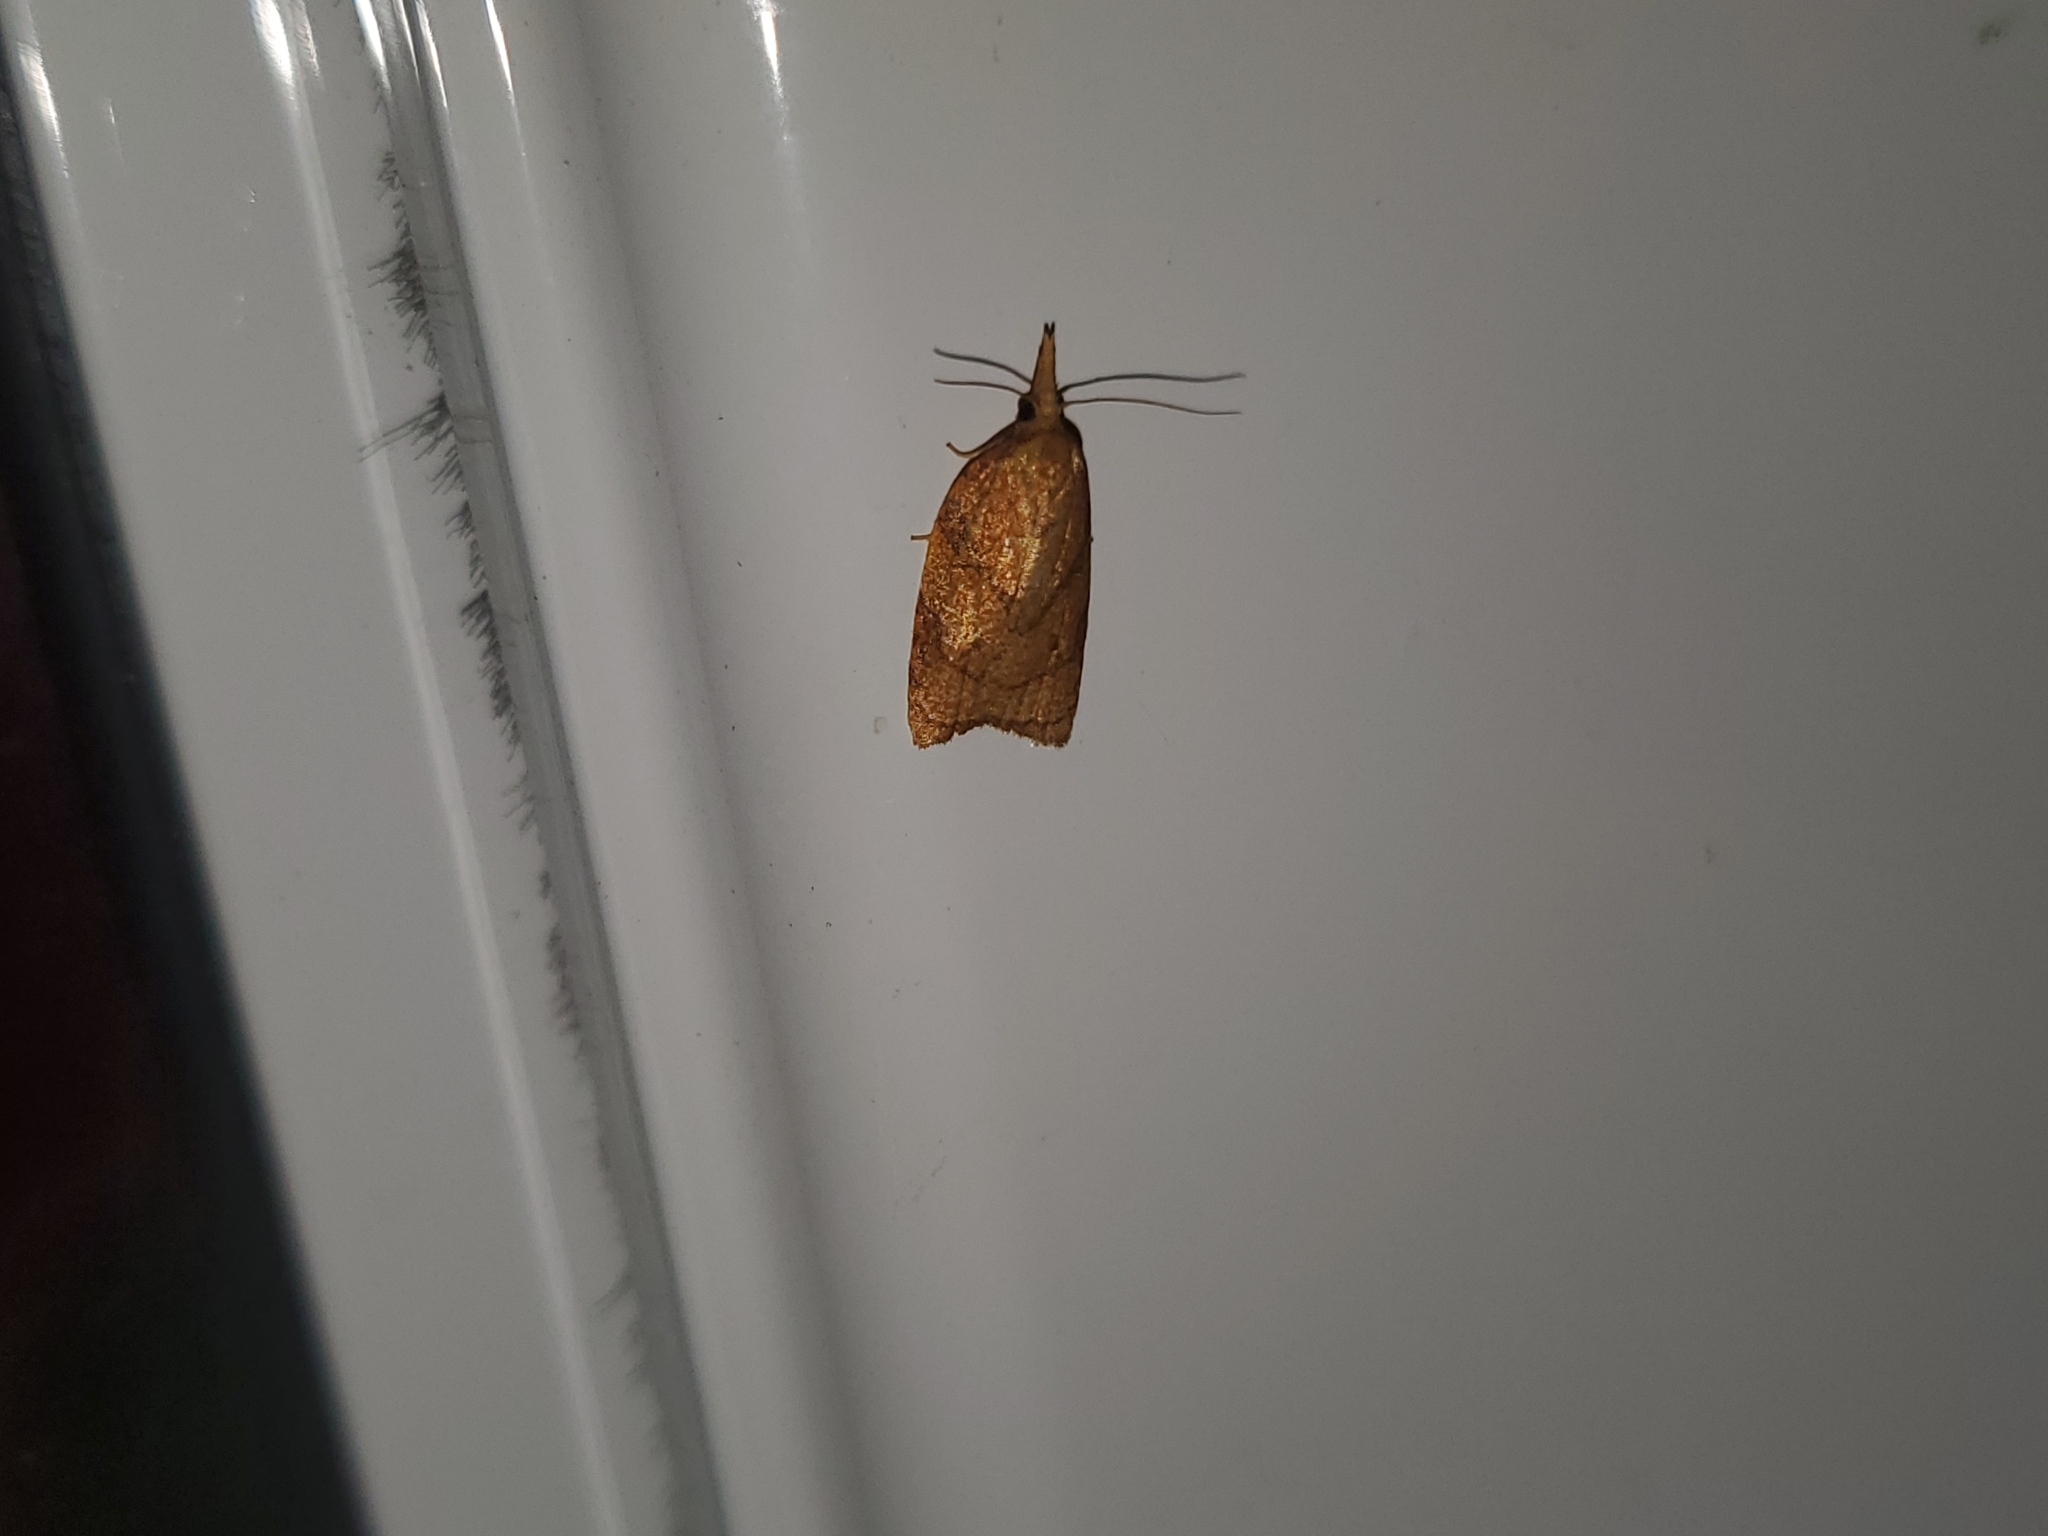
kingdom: Animalia
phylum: Arthropoda
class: Insecta
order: Lepidoptera
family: Tortricidae
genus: Cenopis
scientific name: Cenopis reticulatana
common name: Reticulated fruitworm moth
